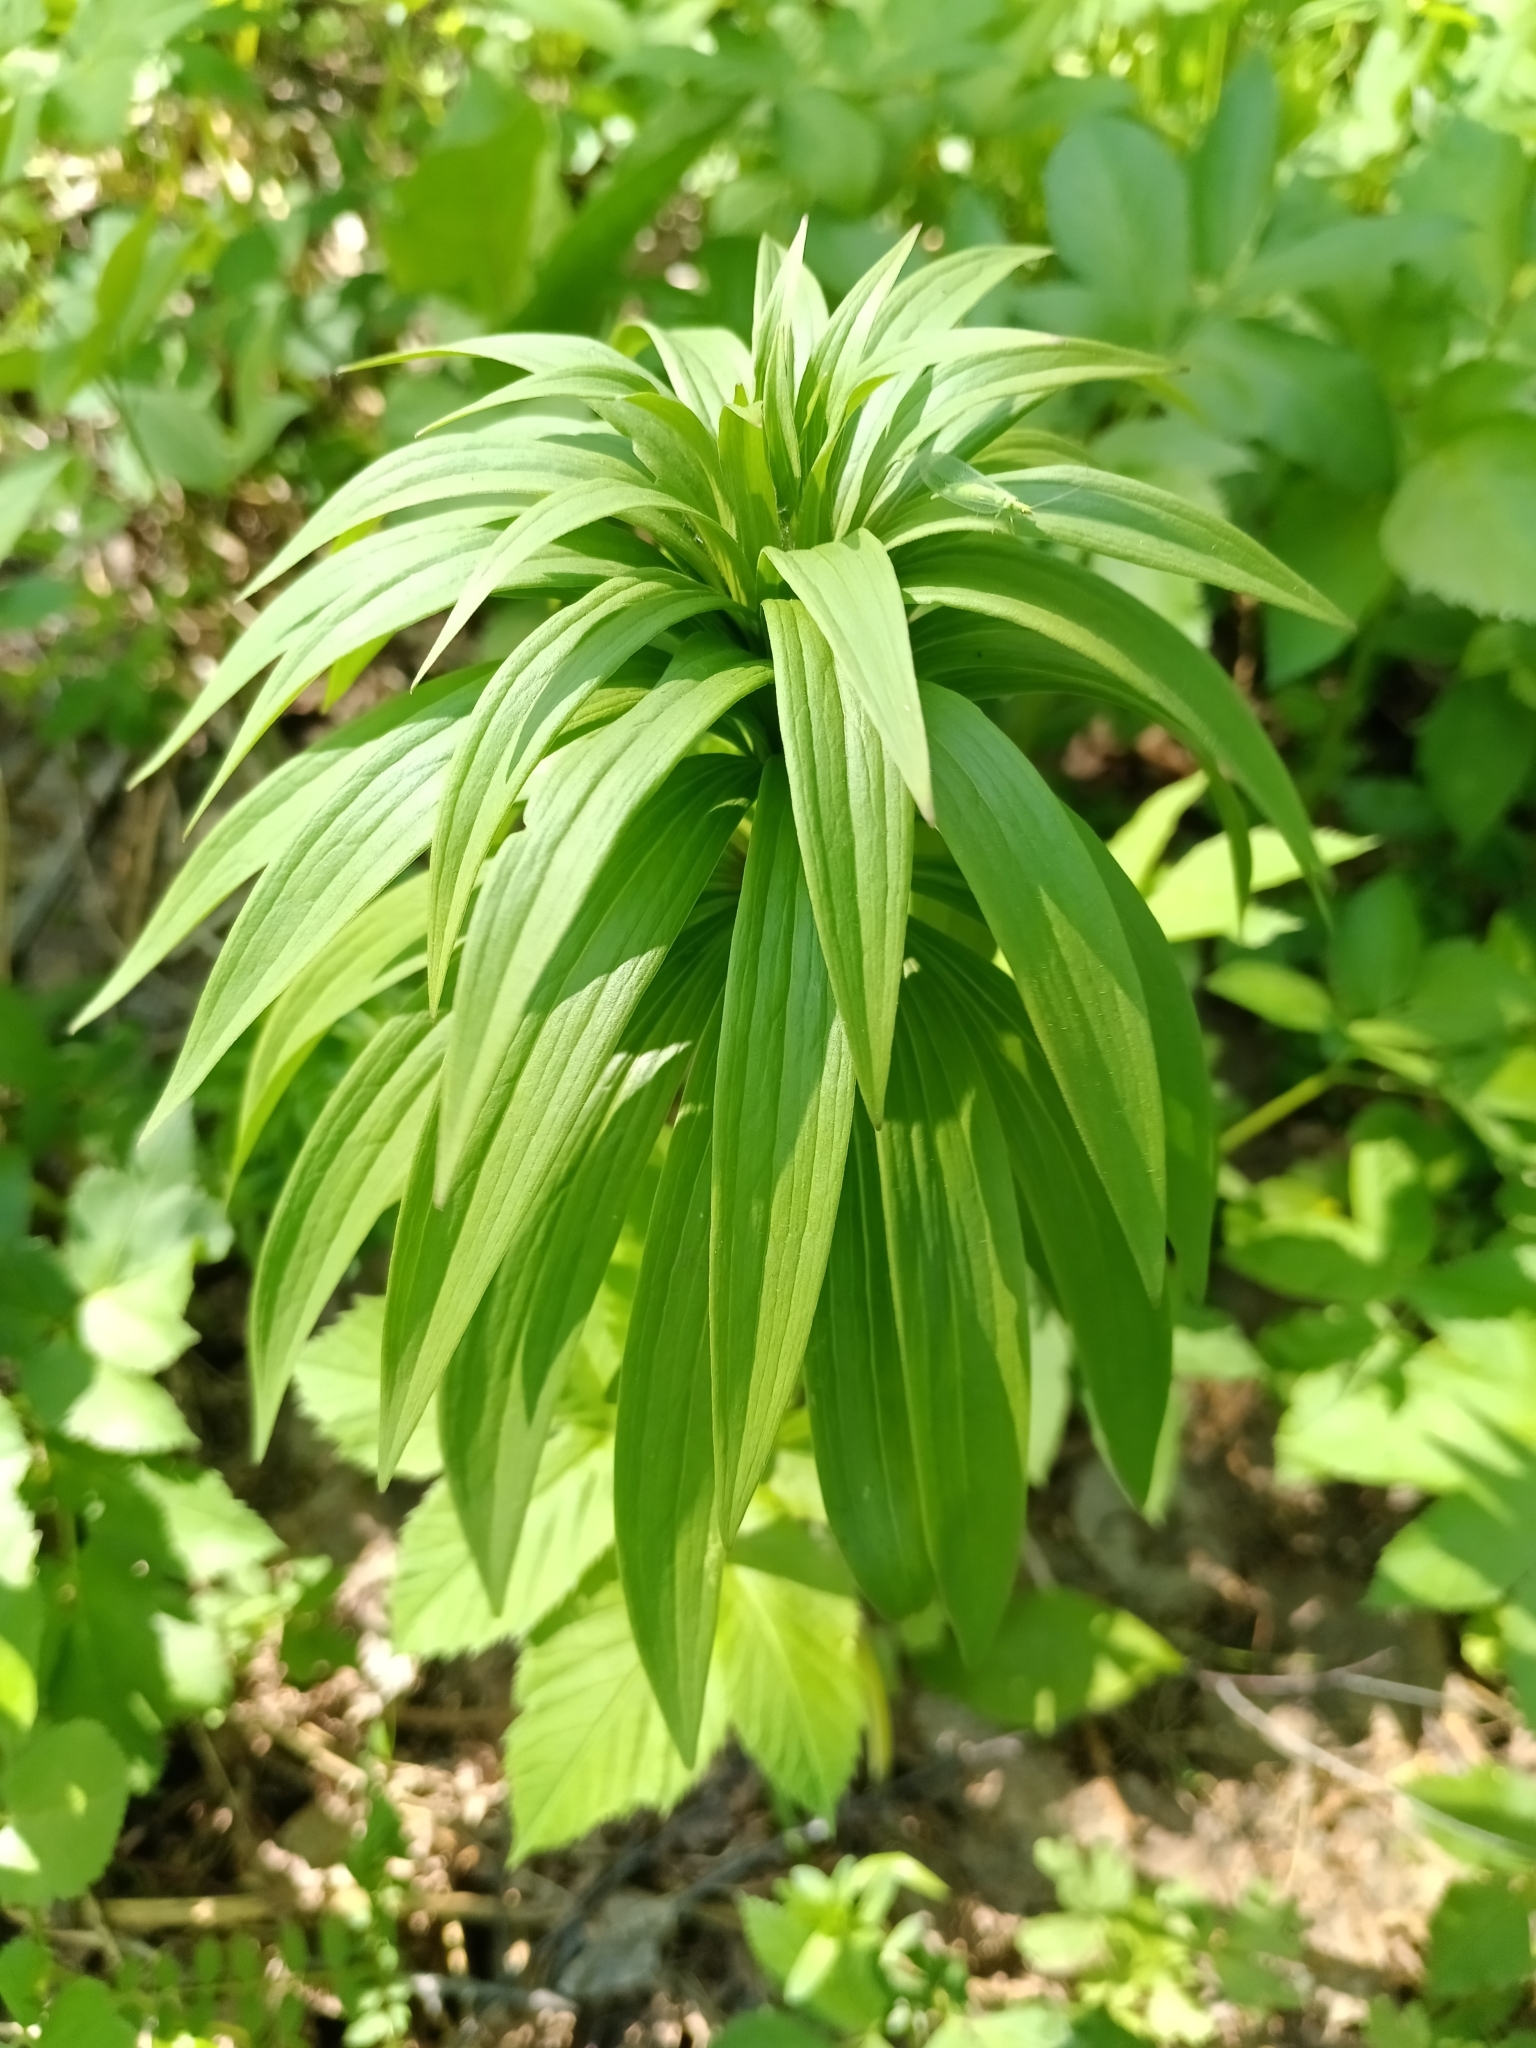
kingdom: Plantae
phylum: Tracheophyta
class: Liliopsida
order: Liliales
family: Liliaceae
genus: Lilium
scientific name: Lilium martagon
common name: Martagon lily
